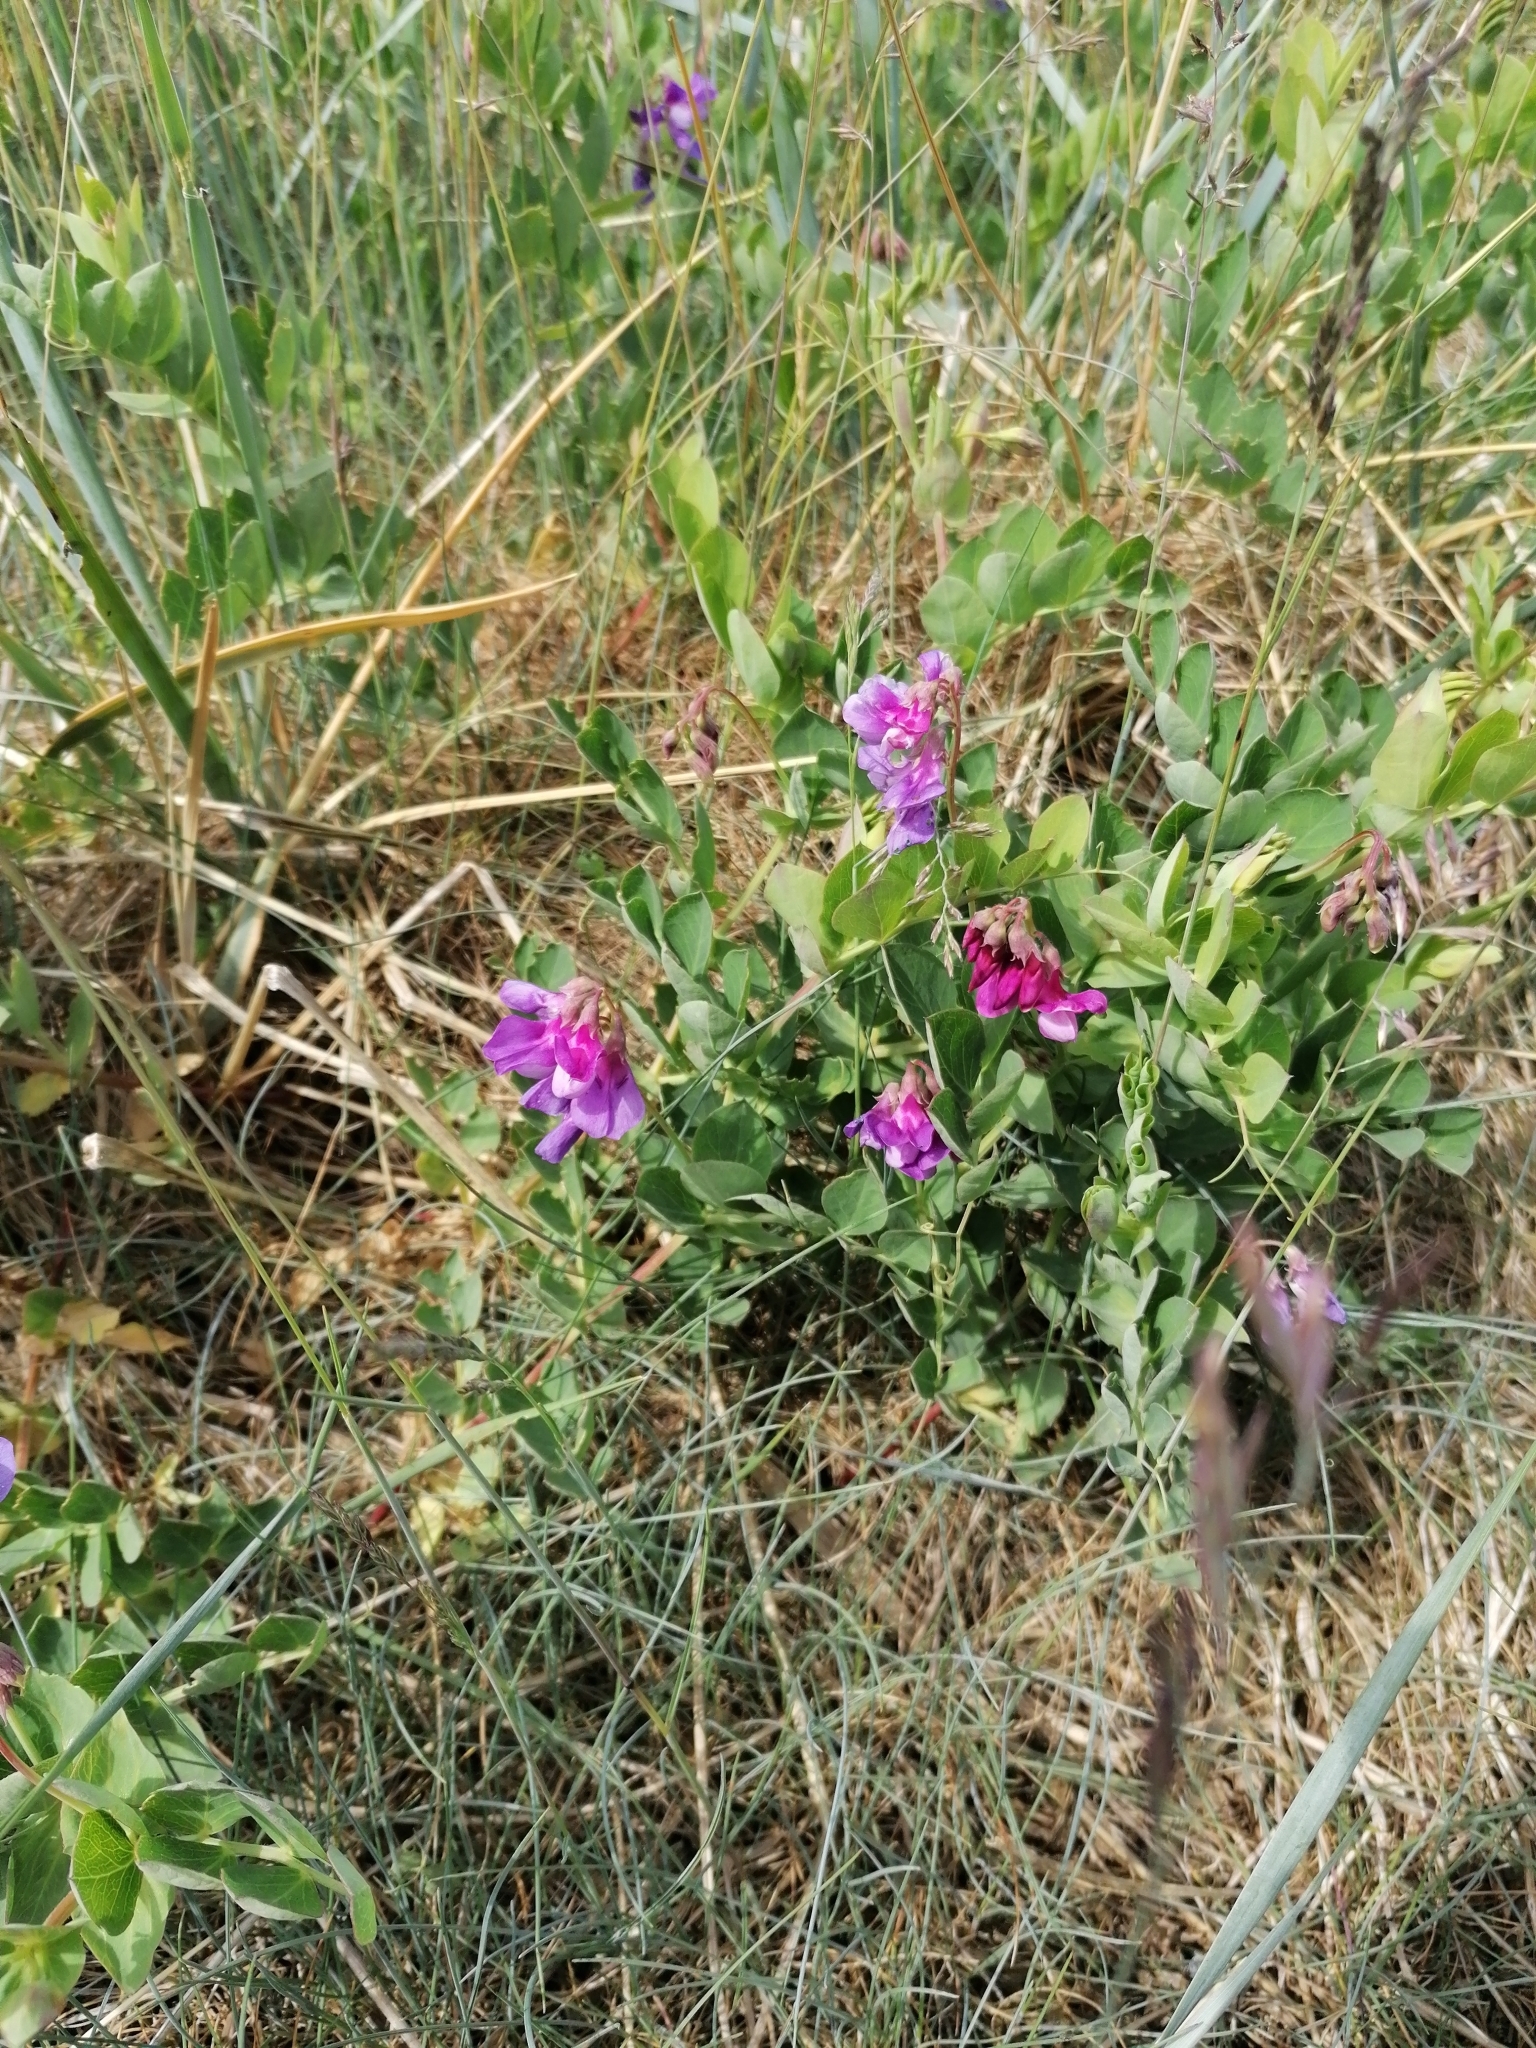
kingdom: Plantae
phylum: Tracheophyta
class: Magnoliopsida
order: Fabales
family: Fabaceae
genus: Lathyrus
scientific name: Lathyrus japonicus
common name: Sea pea
